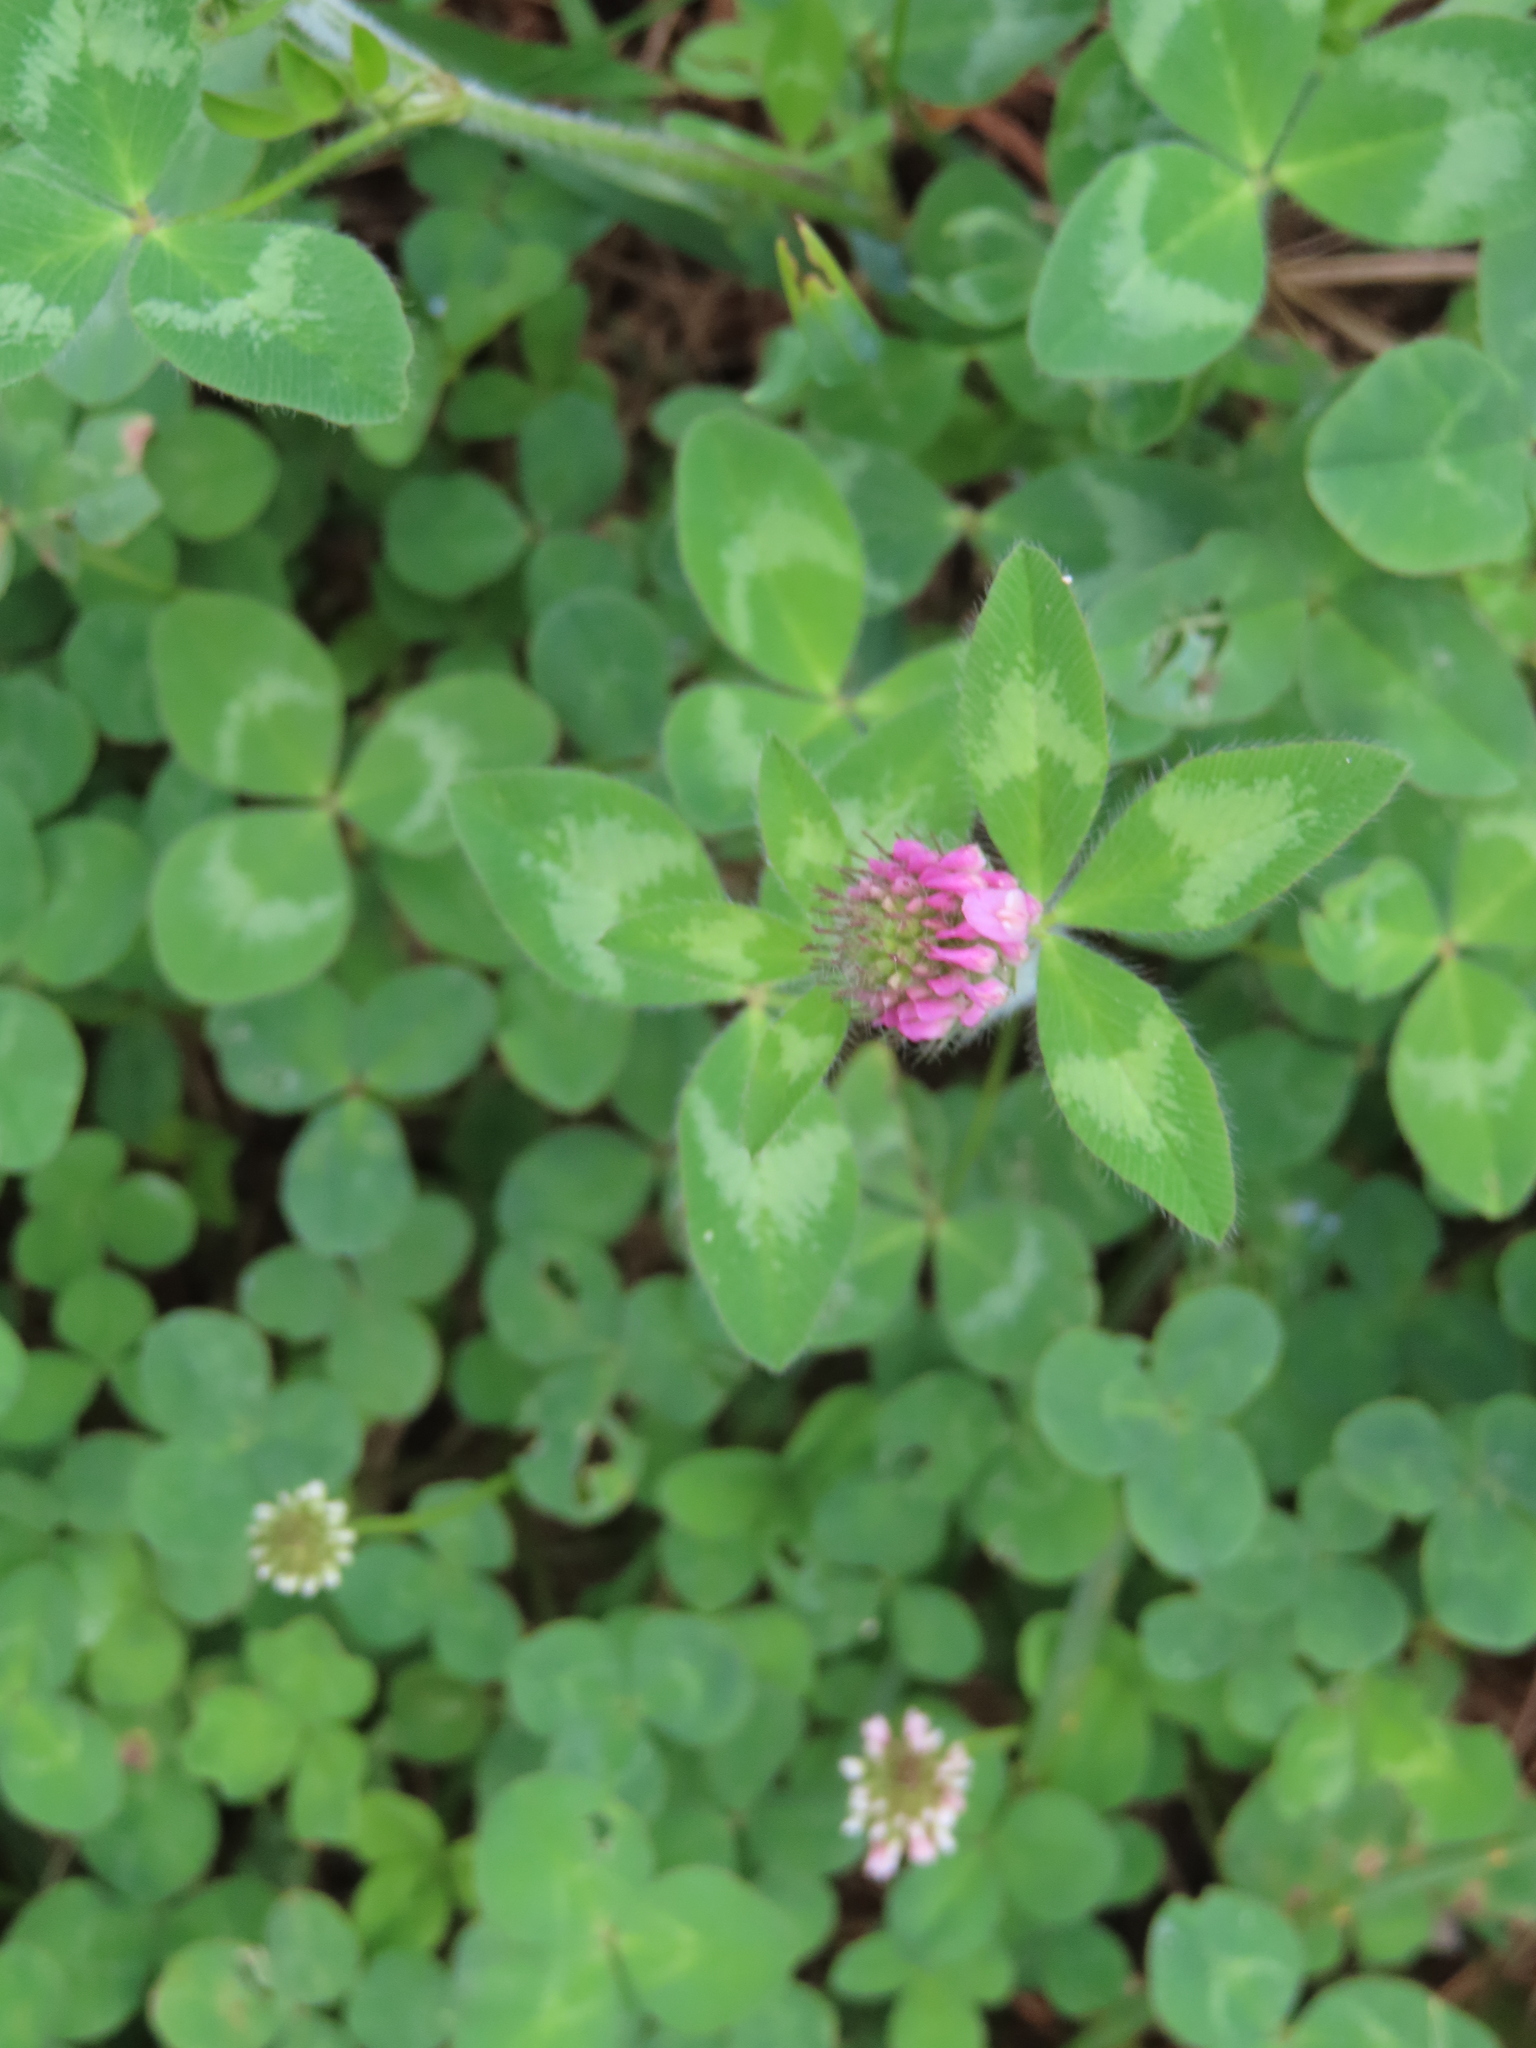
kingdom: Plantae
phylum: Tracheophyta
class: Magnoliopsida
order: Fabales
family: Fabaceae
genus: Trifolium
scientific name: Trifolium pratense
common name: Red clover
